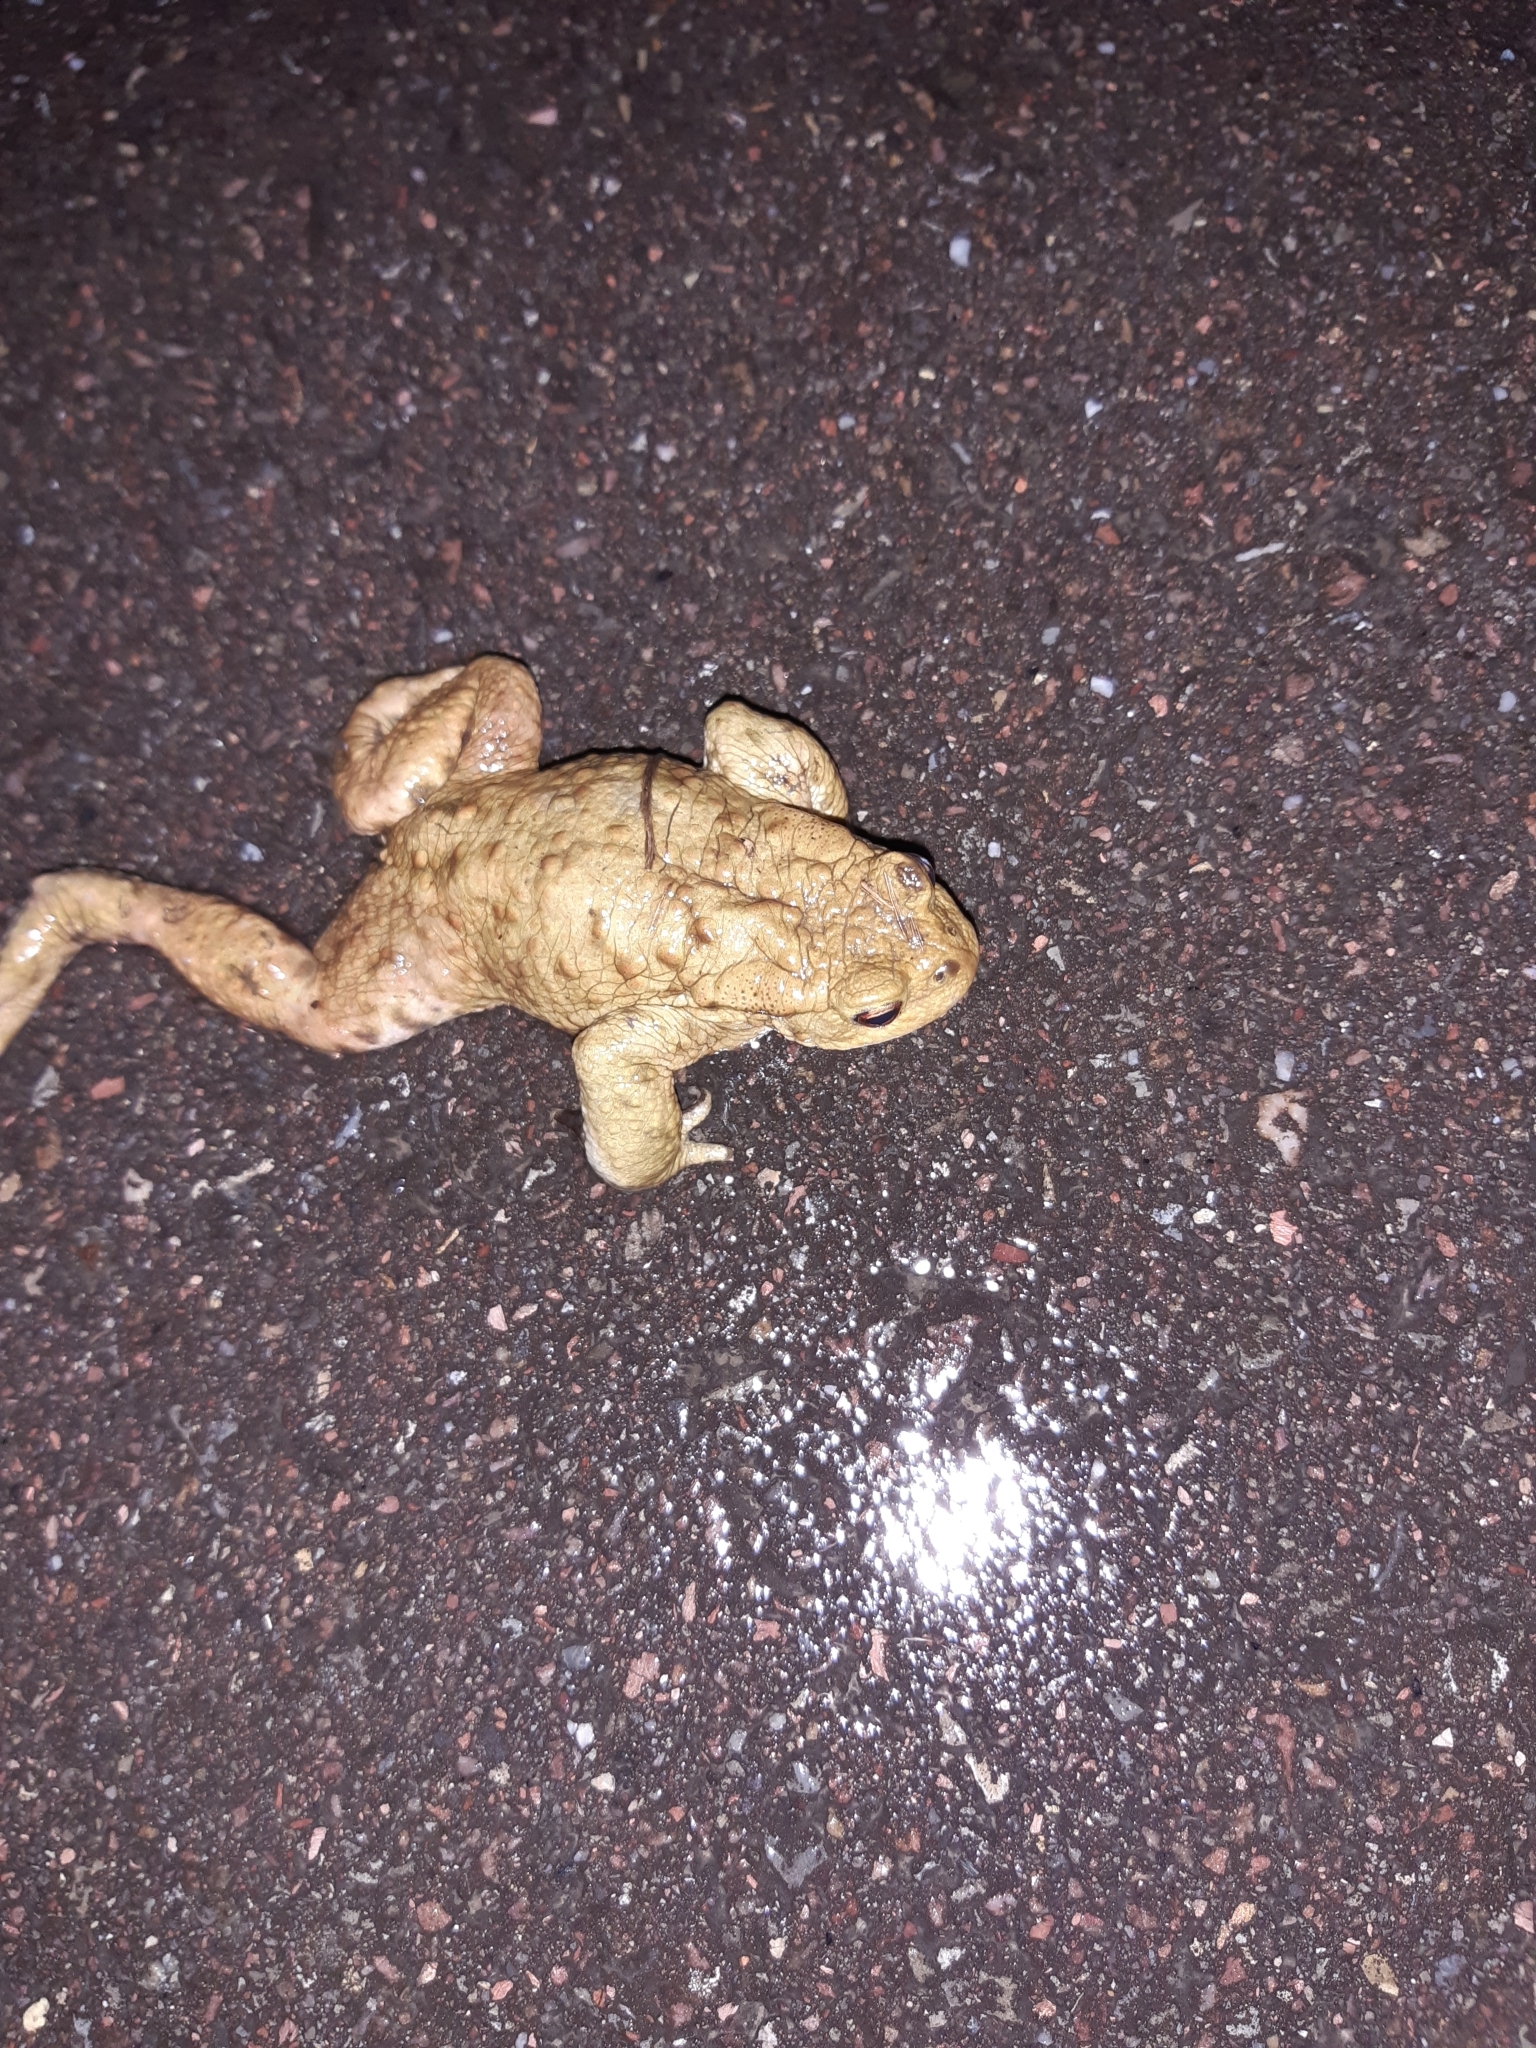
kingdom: Animalia
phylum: Chordata
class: Amphibia
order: Anura
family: Bufonidae
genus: Bufo
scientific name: Bufo bufo
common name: Common toad
